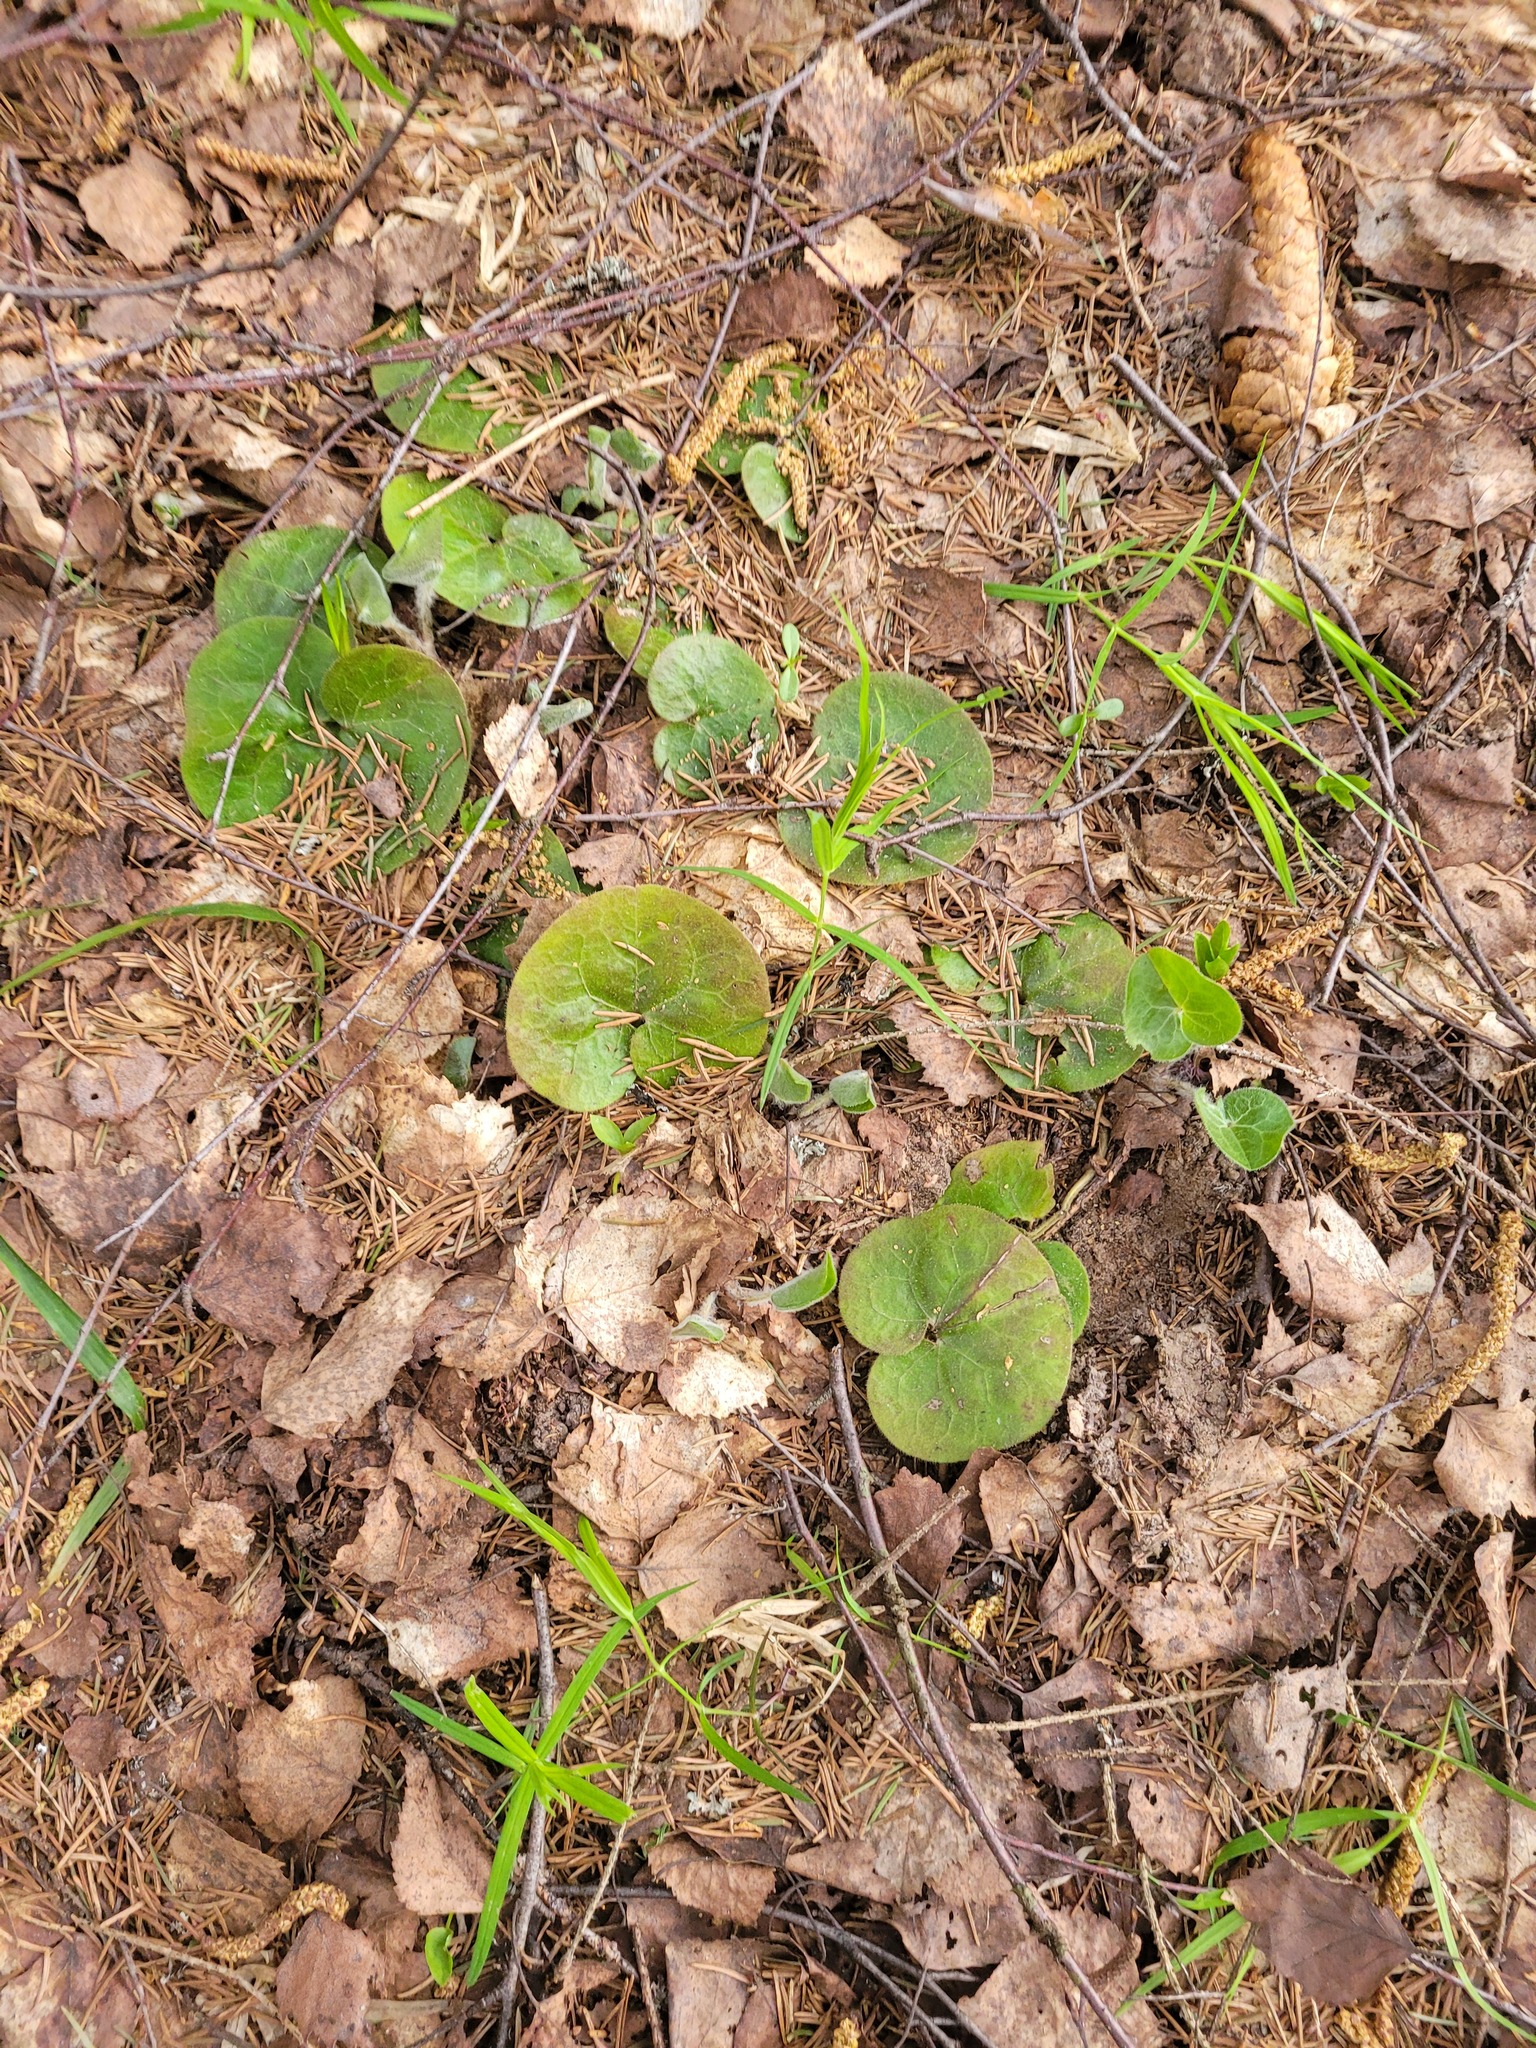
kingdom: Plantae
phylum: Tracheophyta
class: Magnoliopsida
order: Piperales
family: Aristolochiaceae
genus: Asarum
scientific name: Asarum europaeum
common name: Asarabacca
